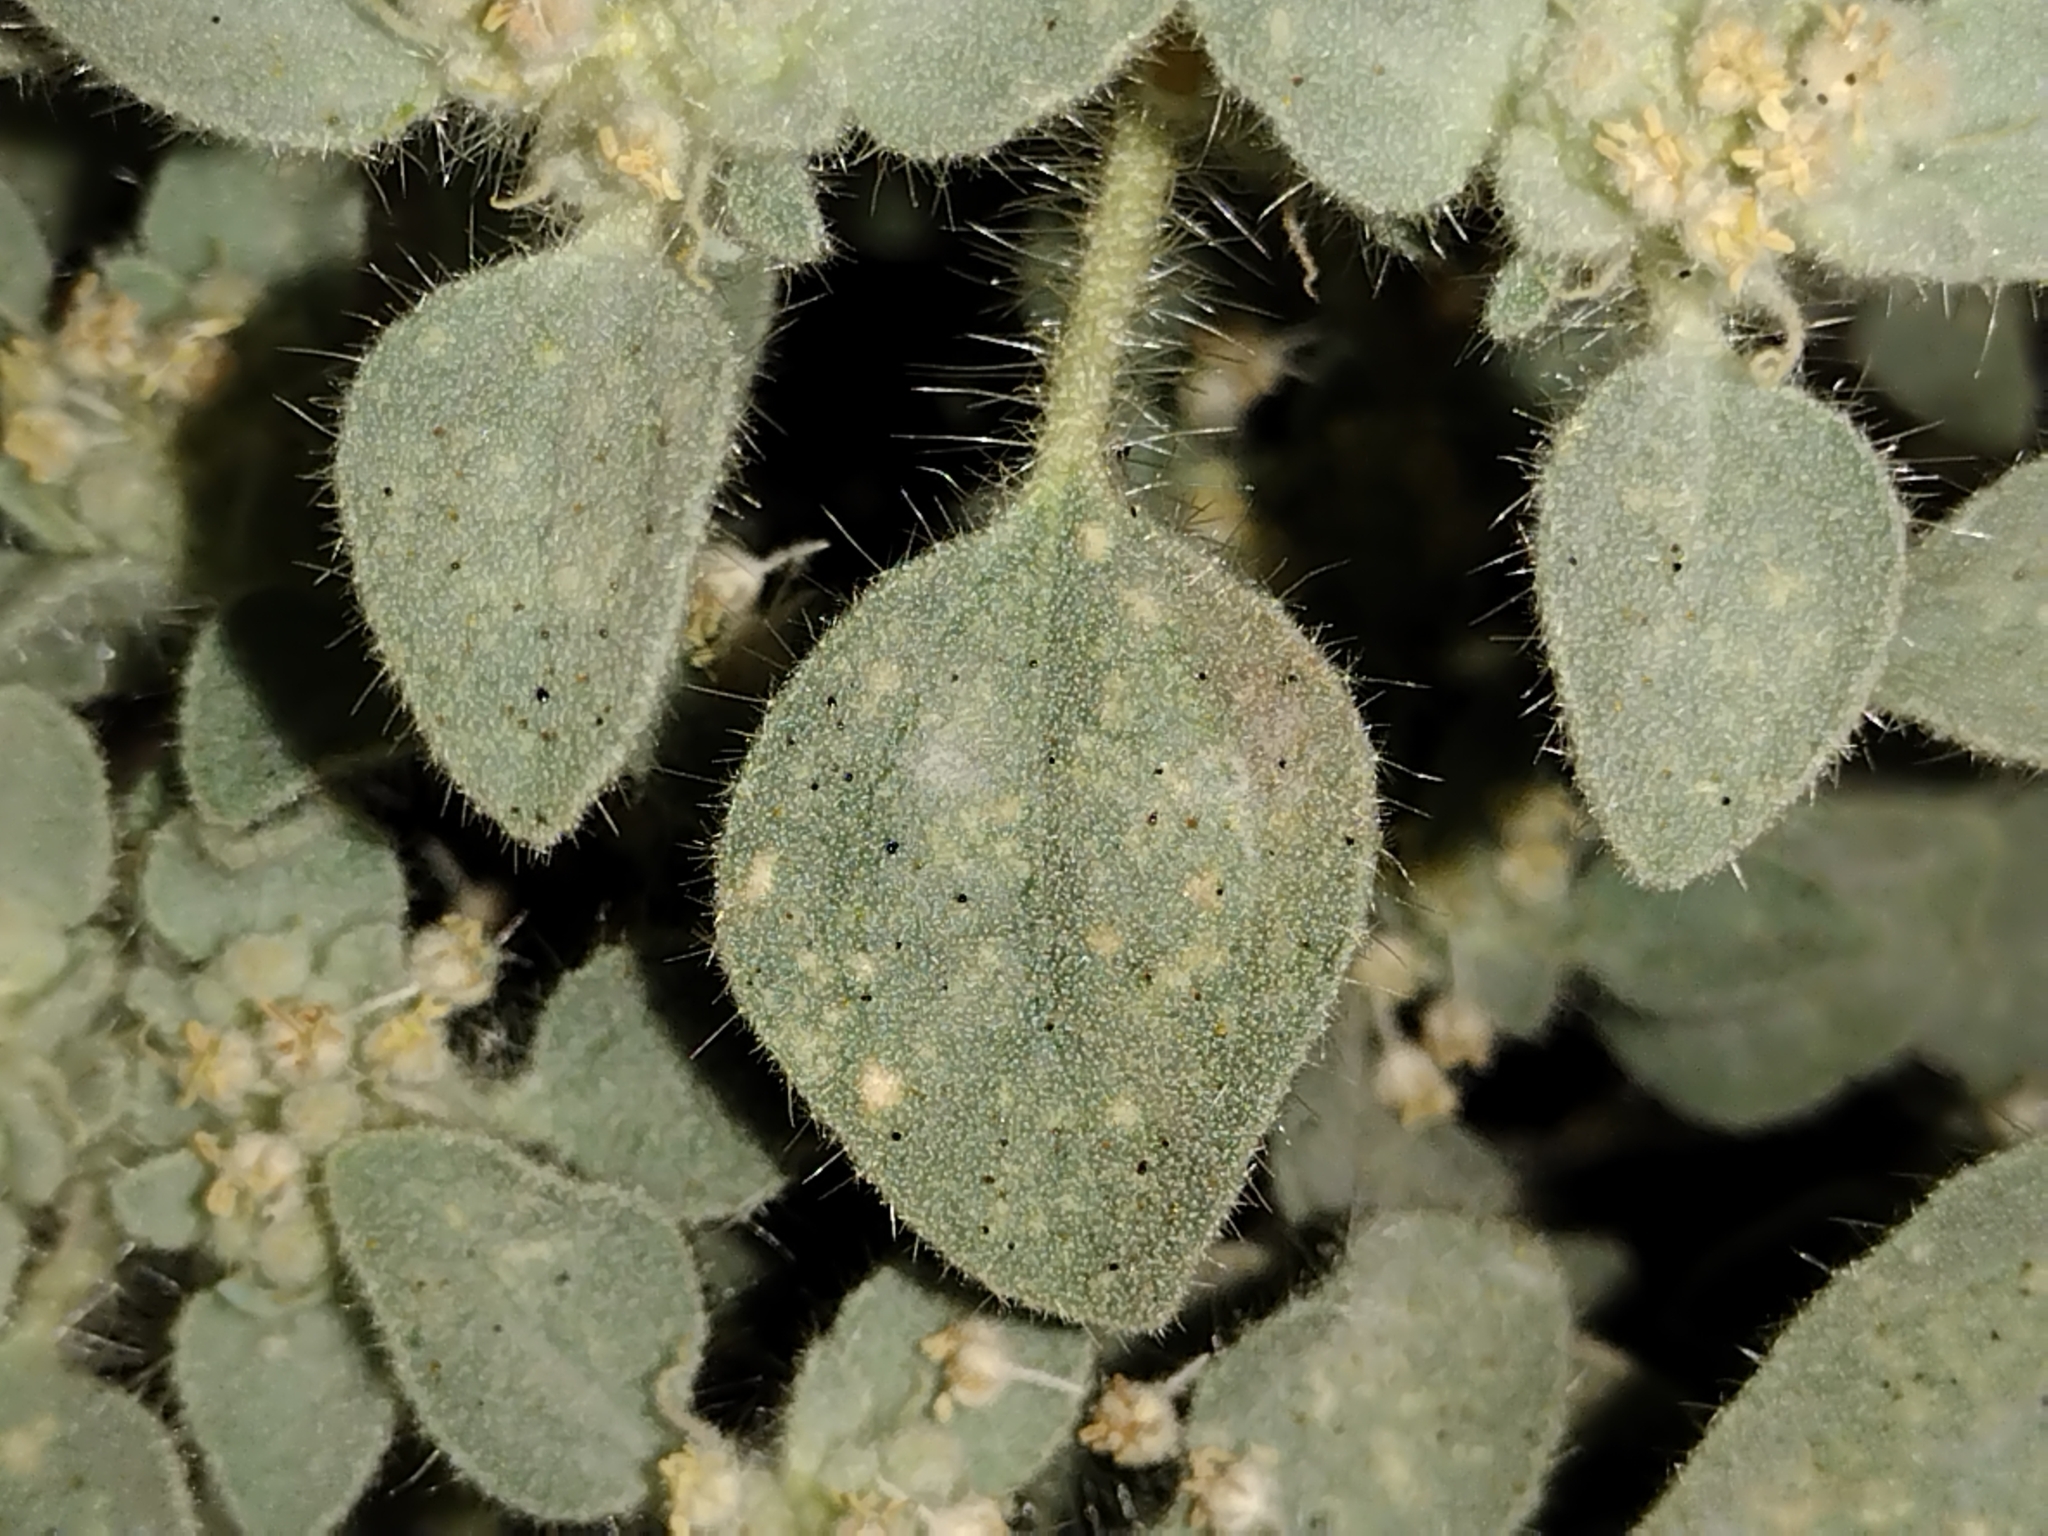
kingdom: Plantae
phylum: Tracheophyta
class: Magnoliopsida
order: Malpighiales
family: Euphorbiaceae
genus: Croton
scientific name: Croton setiger
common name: Dove weed
